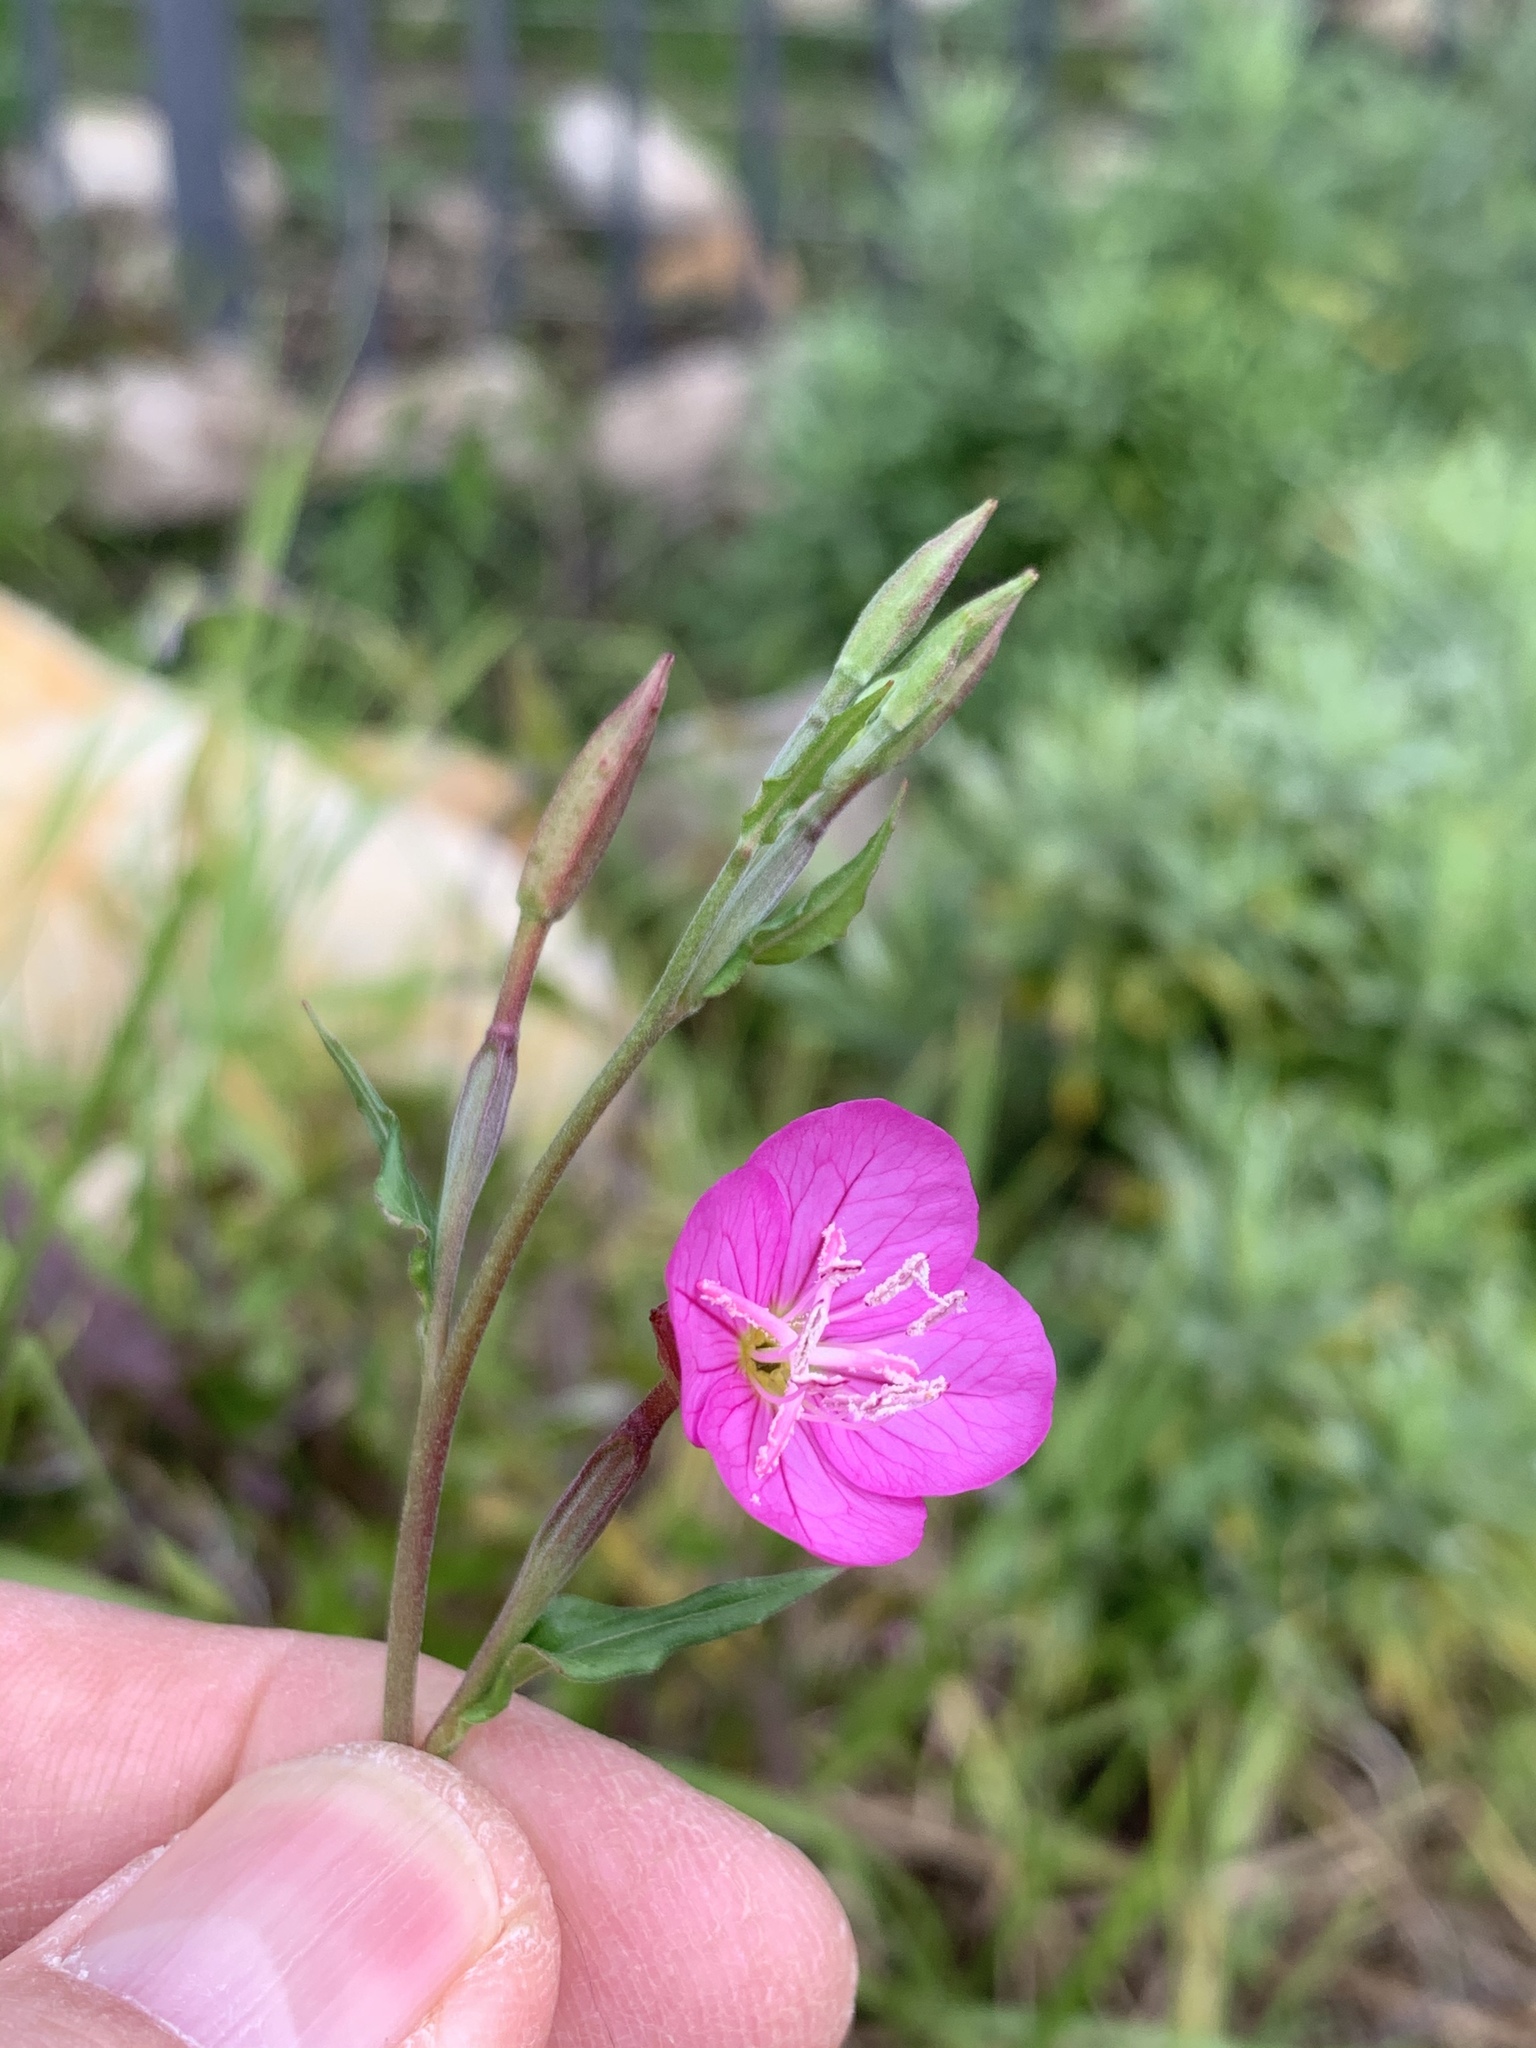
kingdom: Plantae
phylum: Tracheophyta
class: Magnoliopsida
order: Myrtales
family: Onagraceae
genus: Oenothera
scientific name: Oenothera rosea
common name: Rosy evening-primrose
